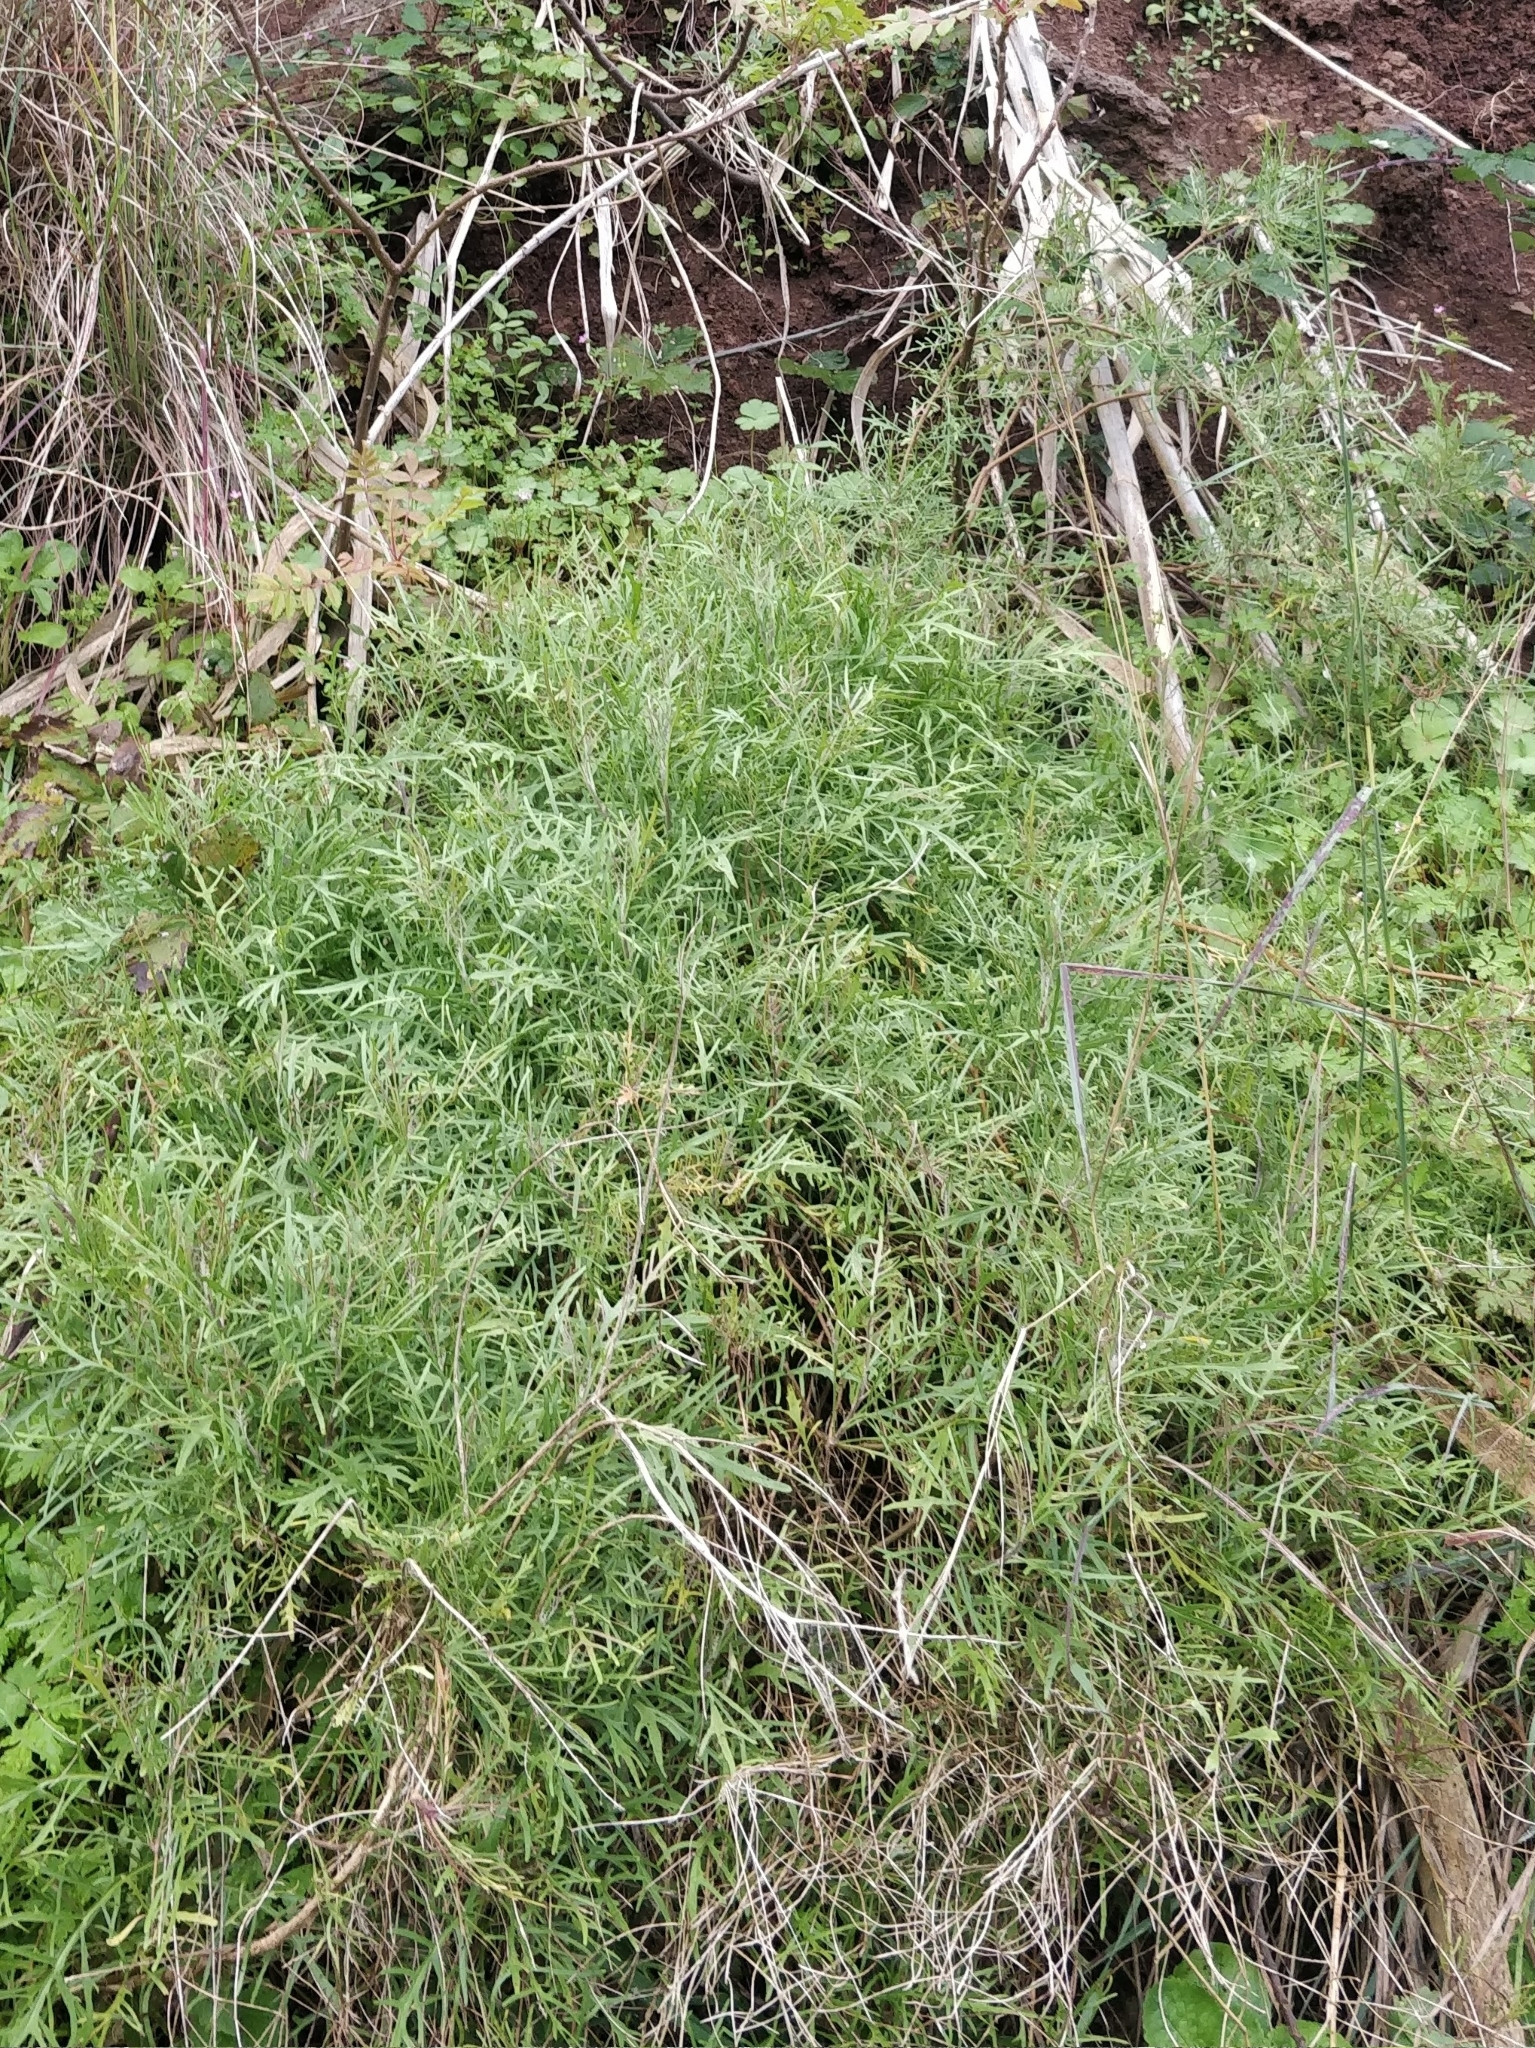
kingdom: Plantae
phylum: Tracheophyta
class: Magnoliopsida
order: Asterales
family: Asteraceae
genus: Tolpis
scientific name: Tolpis succulenta
